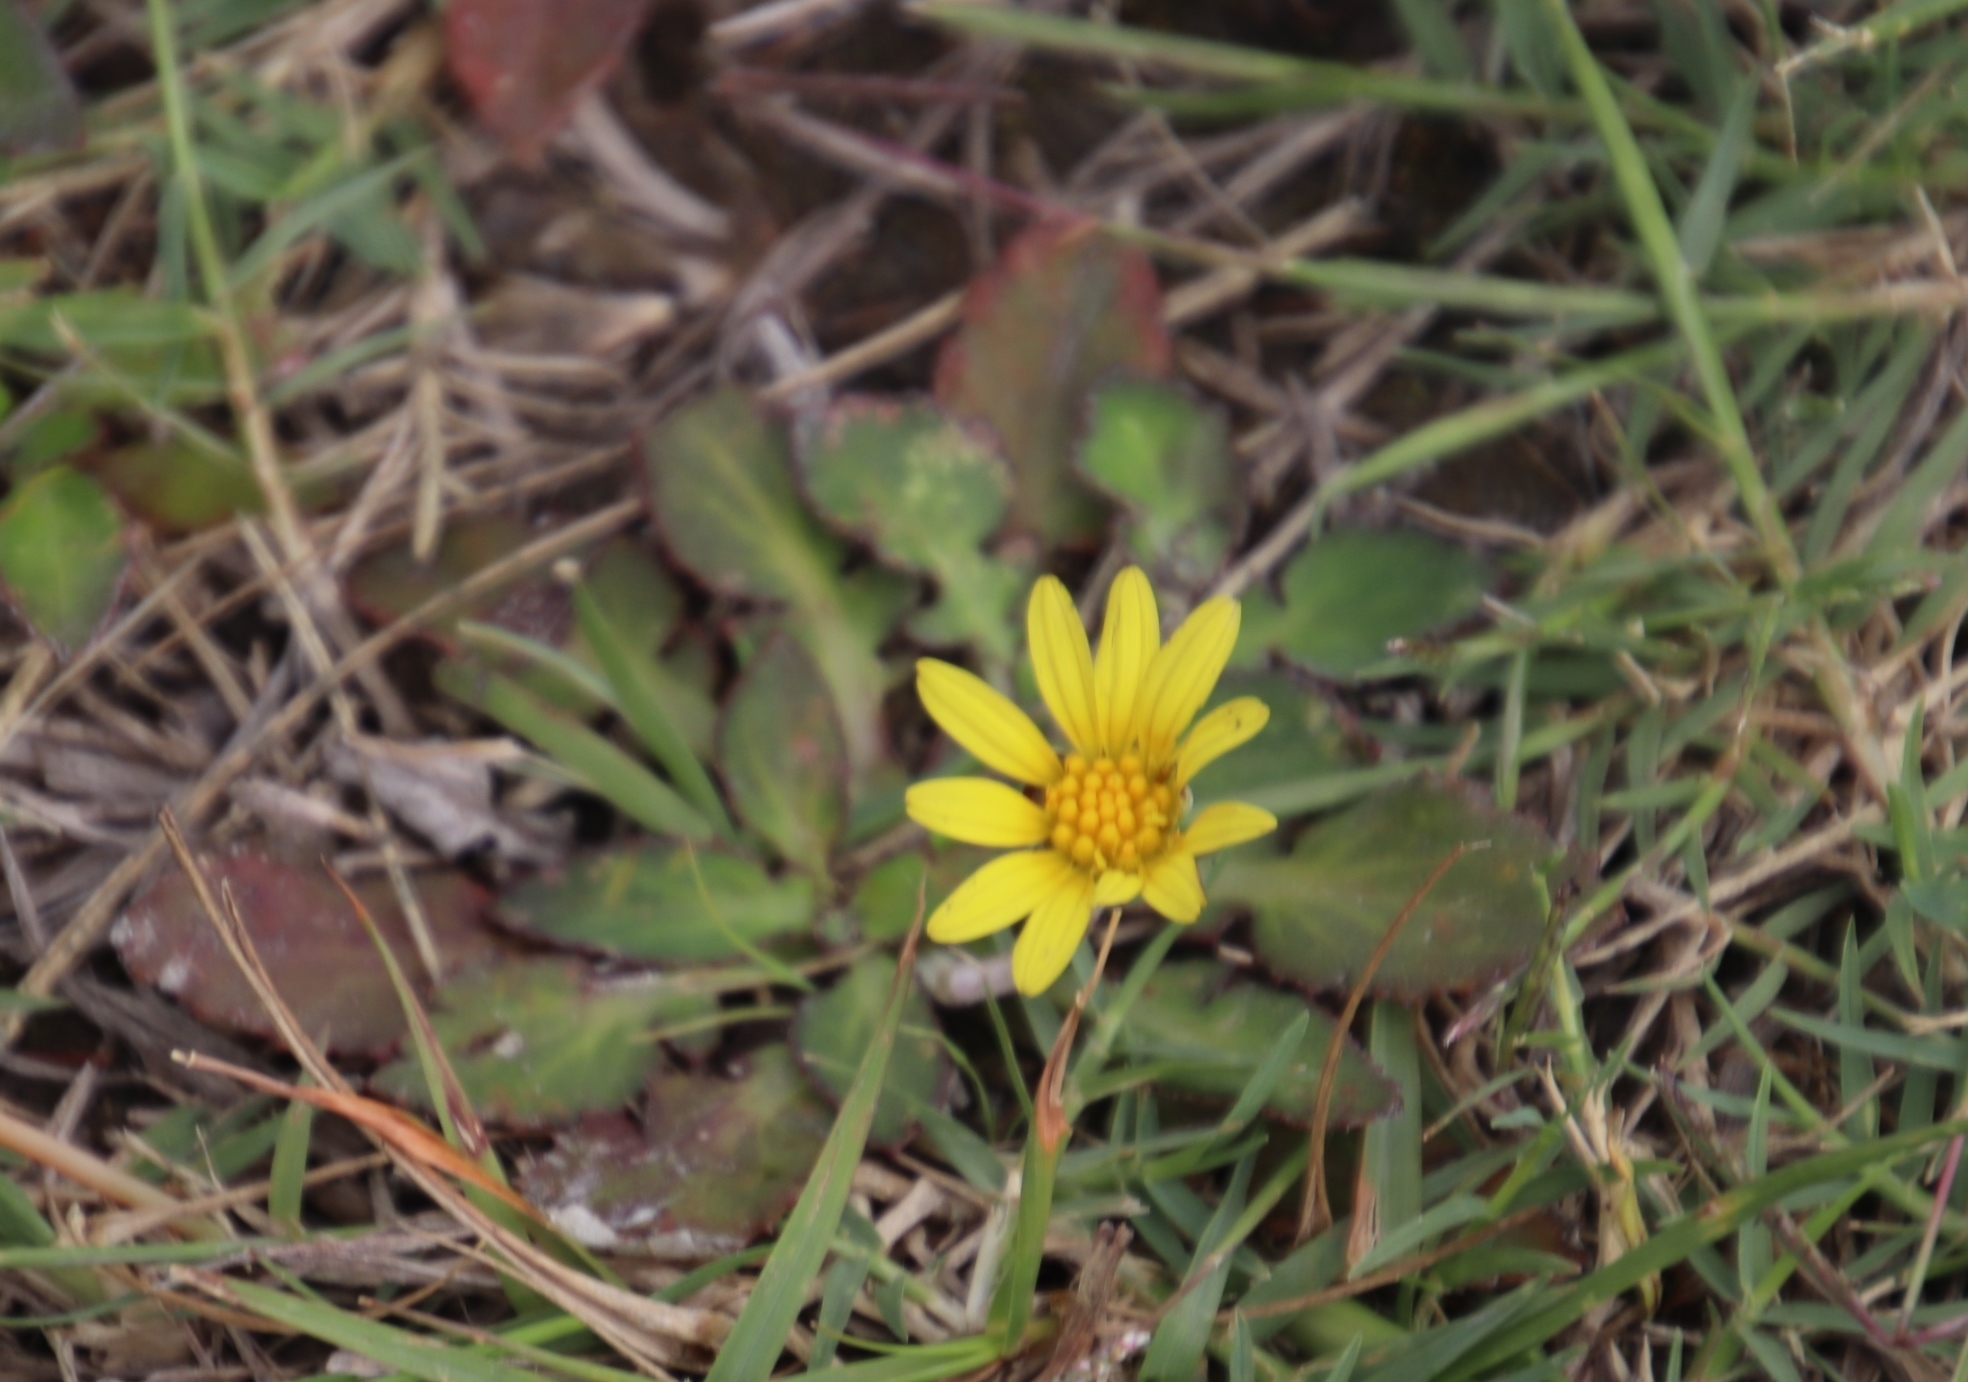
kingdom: Plantae
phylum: Tracheophyta
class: Magnoliopsida
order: Asterales
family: Asteraceae
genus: Haplocarpha
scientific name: Haplocarpha lanata
